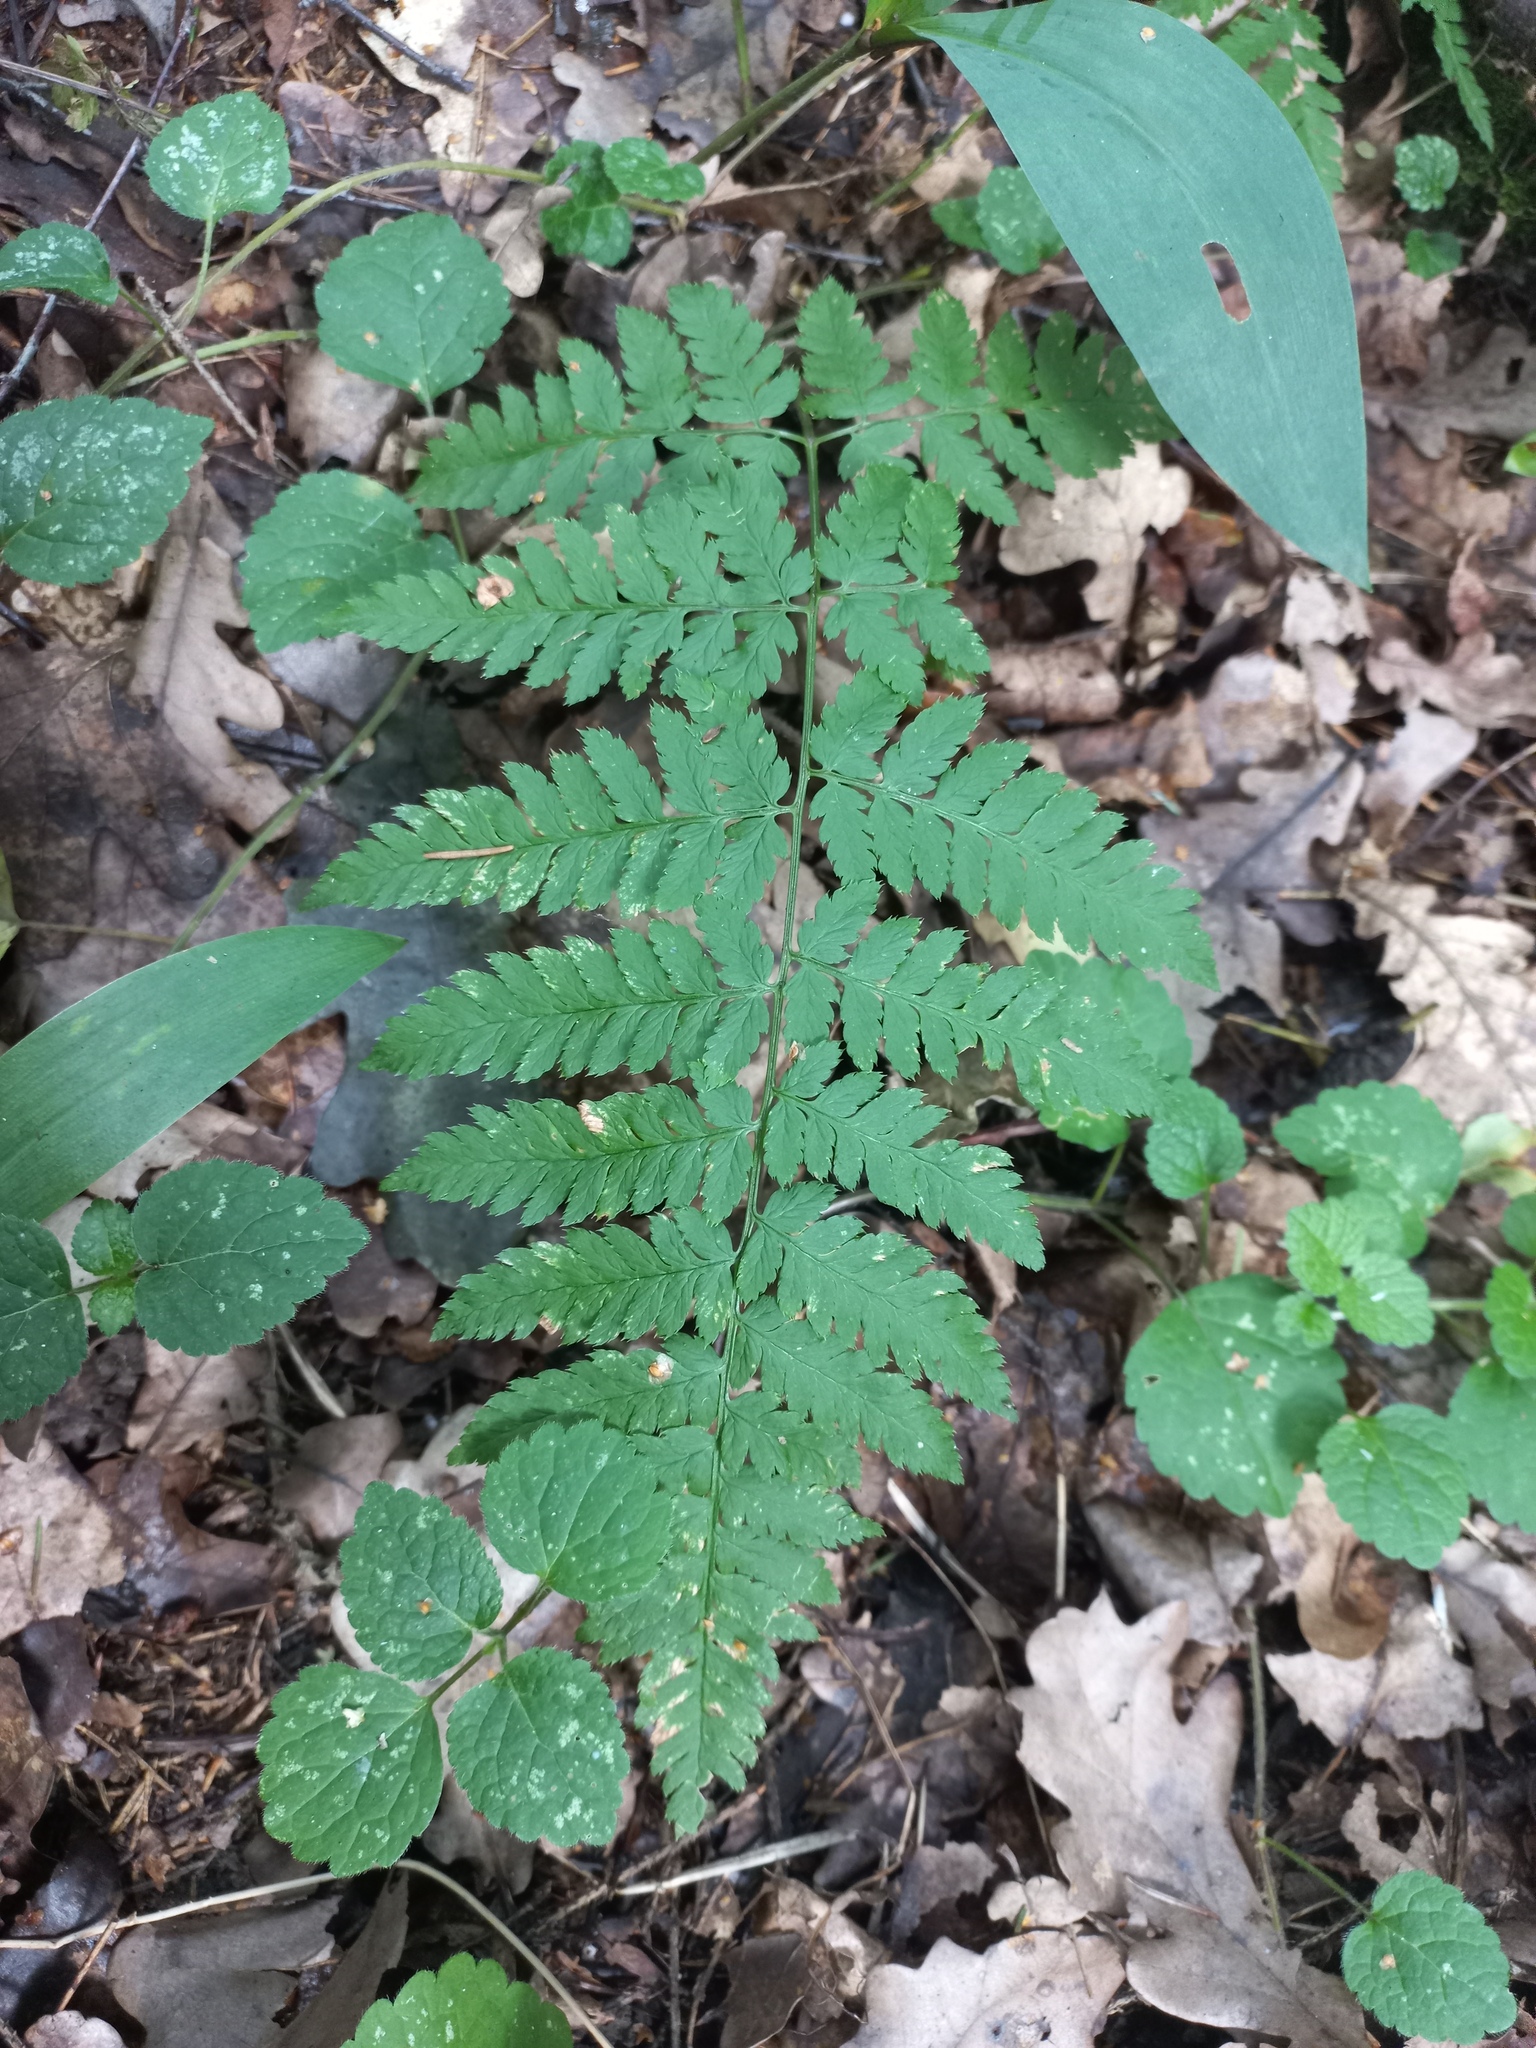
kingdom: Plantae
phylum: Tracheophyta
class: Polypodiopsida
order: Polypodiales
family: Dryopteridaceae
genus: Dryopteris
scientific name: Dryopteris carthusiana
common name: Narrow buckler-fern
